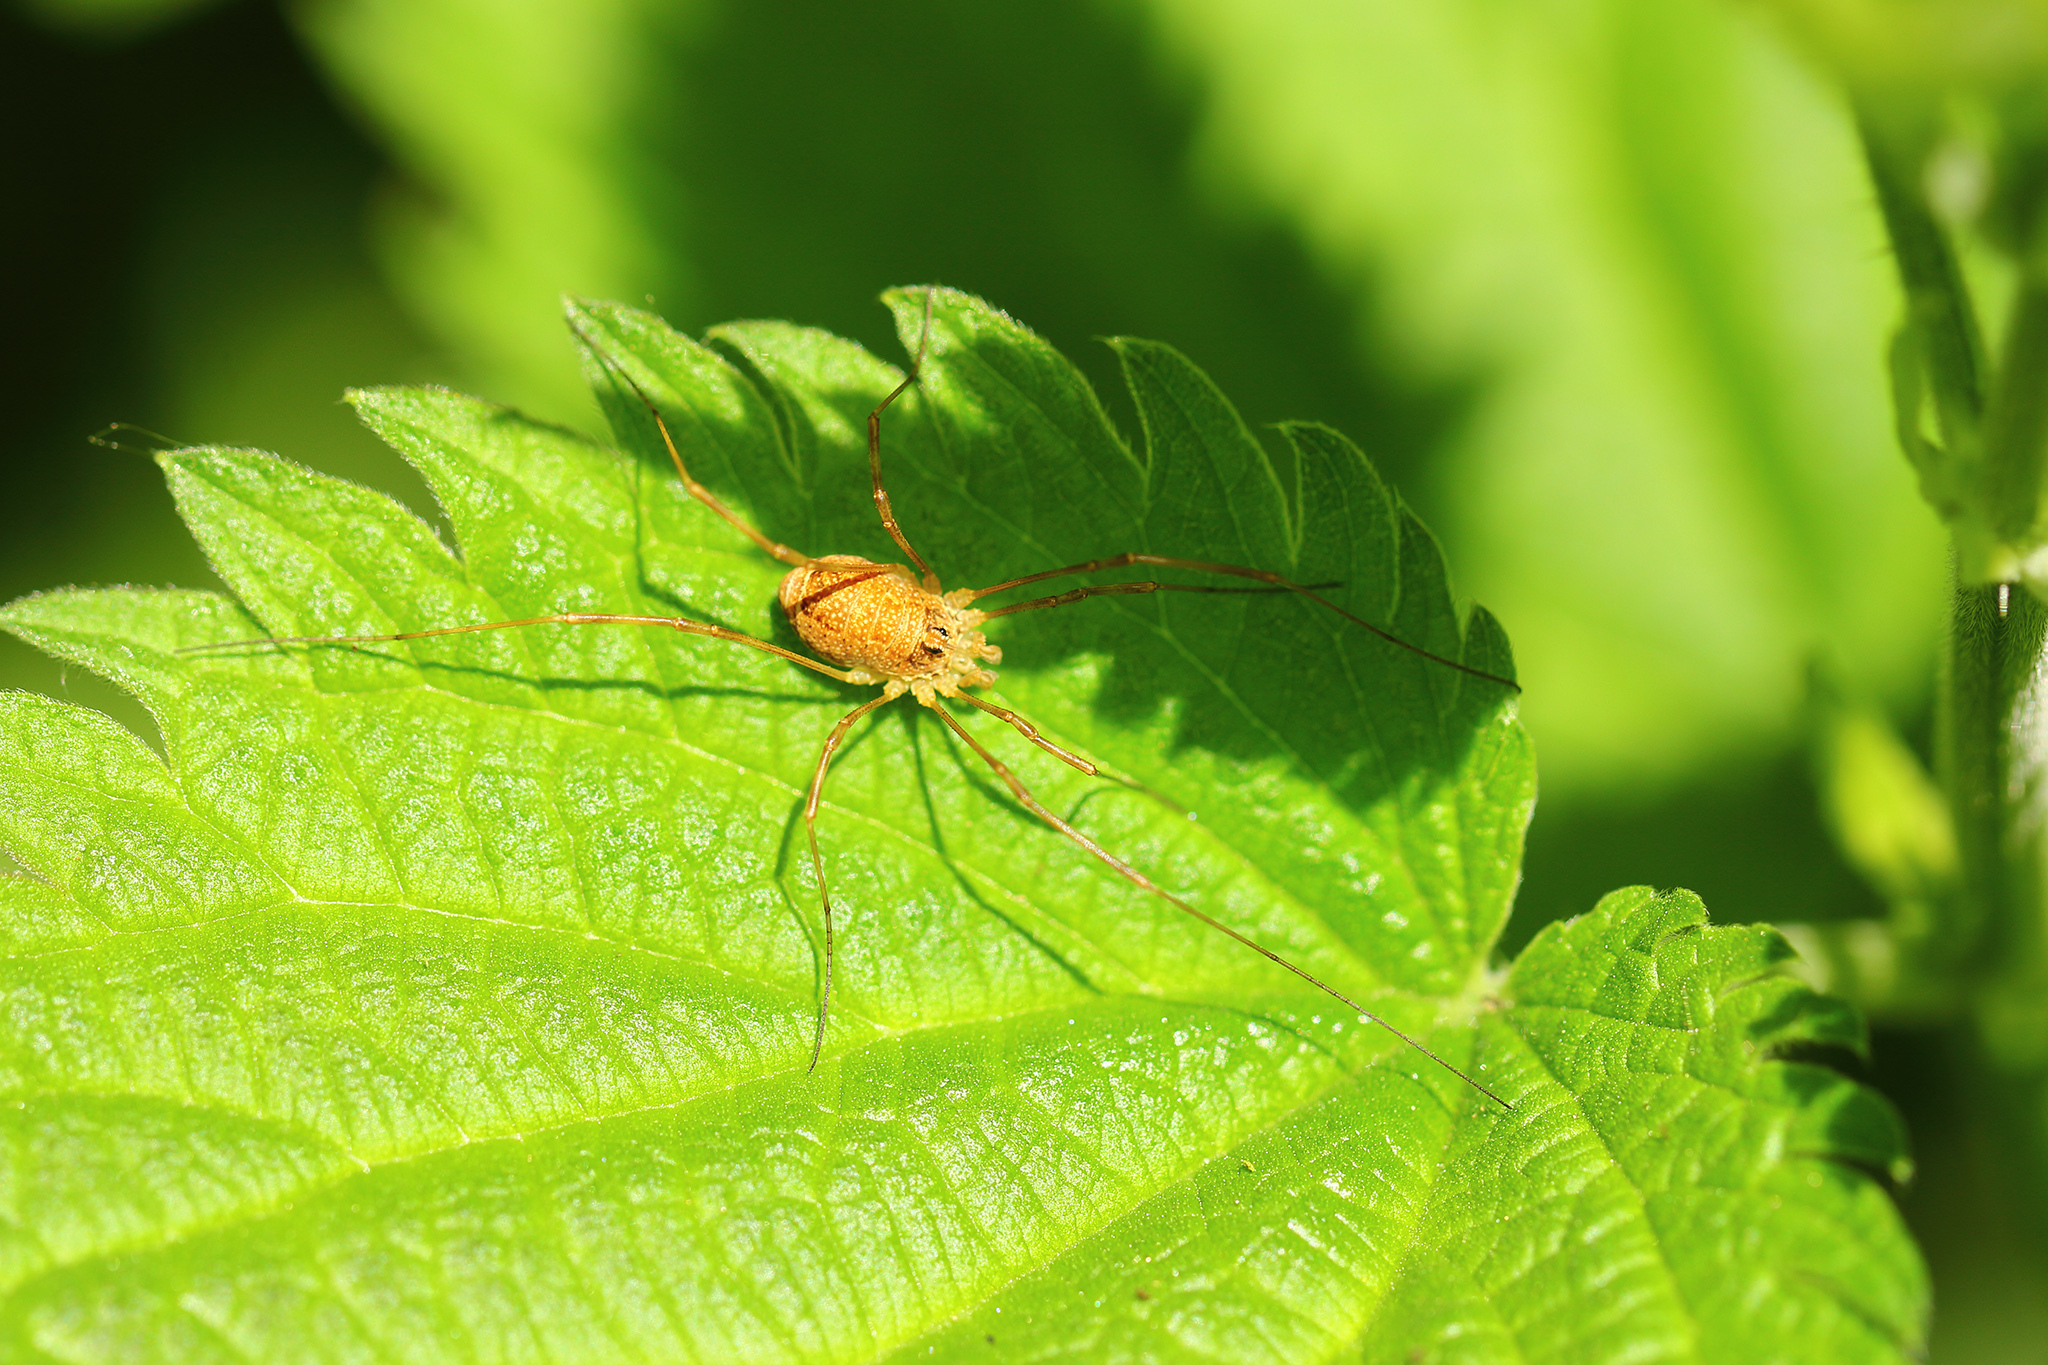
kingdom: Animalia
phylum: Arthropoda
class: Arachnida
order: Opiliones
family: Phalangiidae
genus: Rilaena
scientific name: Rilaena triangularis
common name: Spring harvestman
